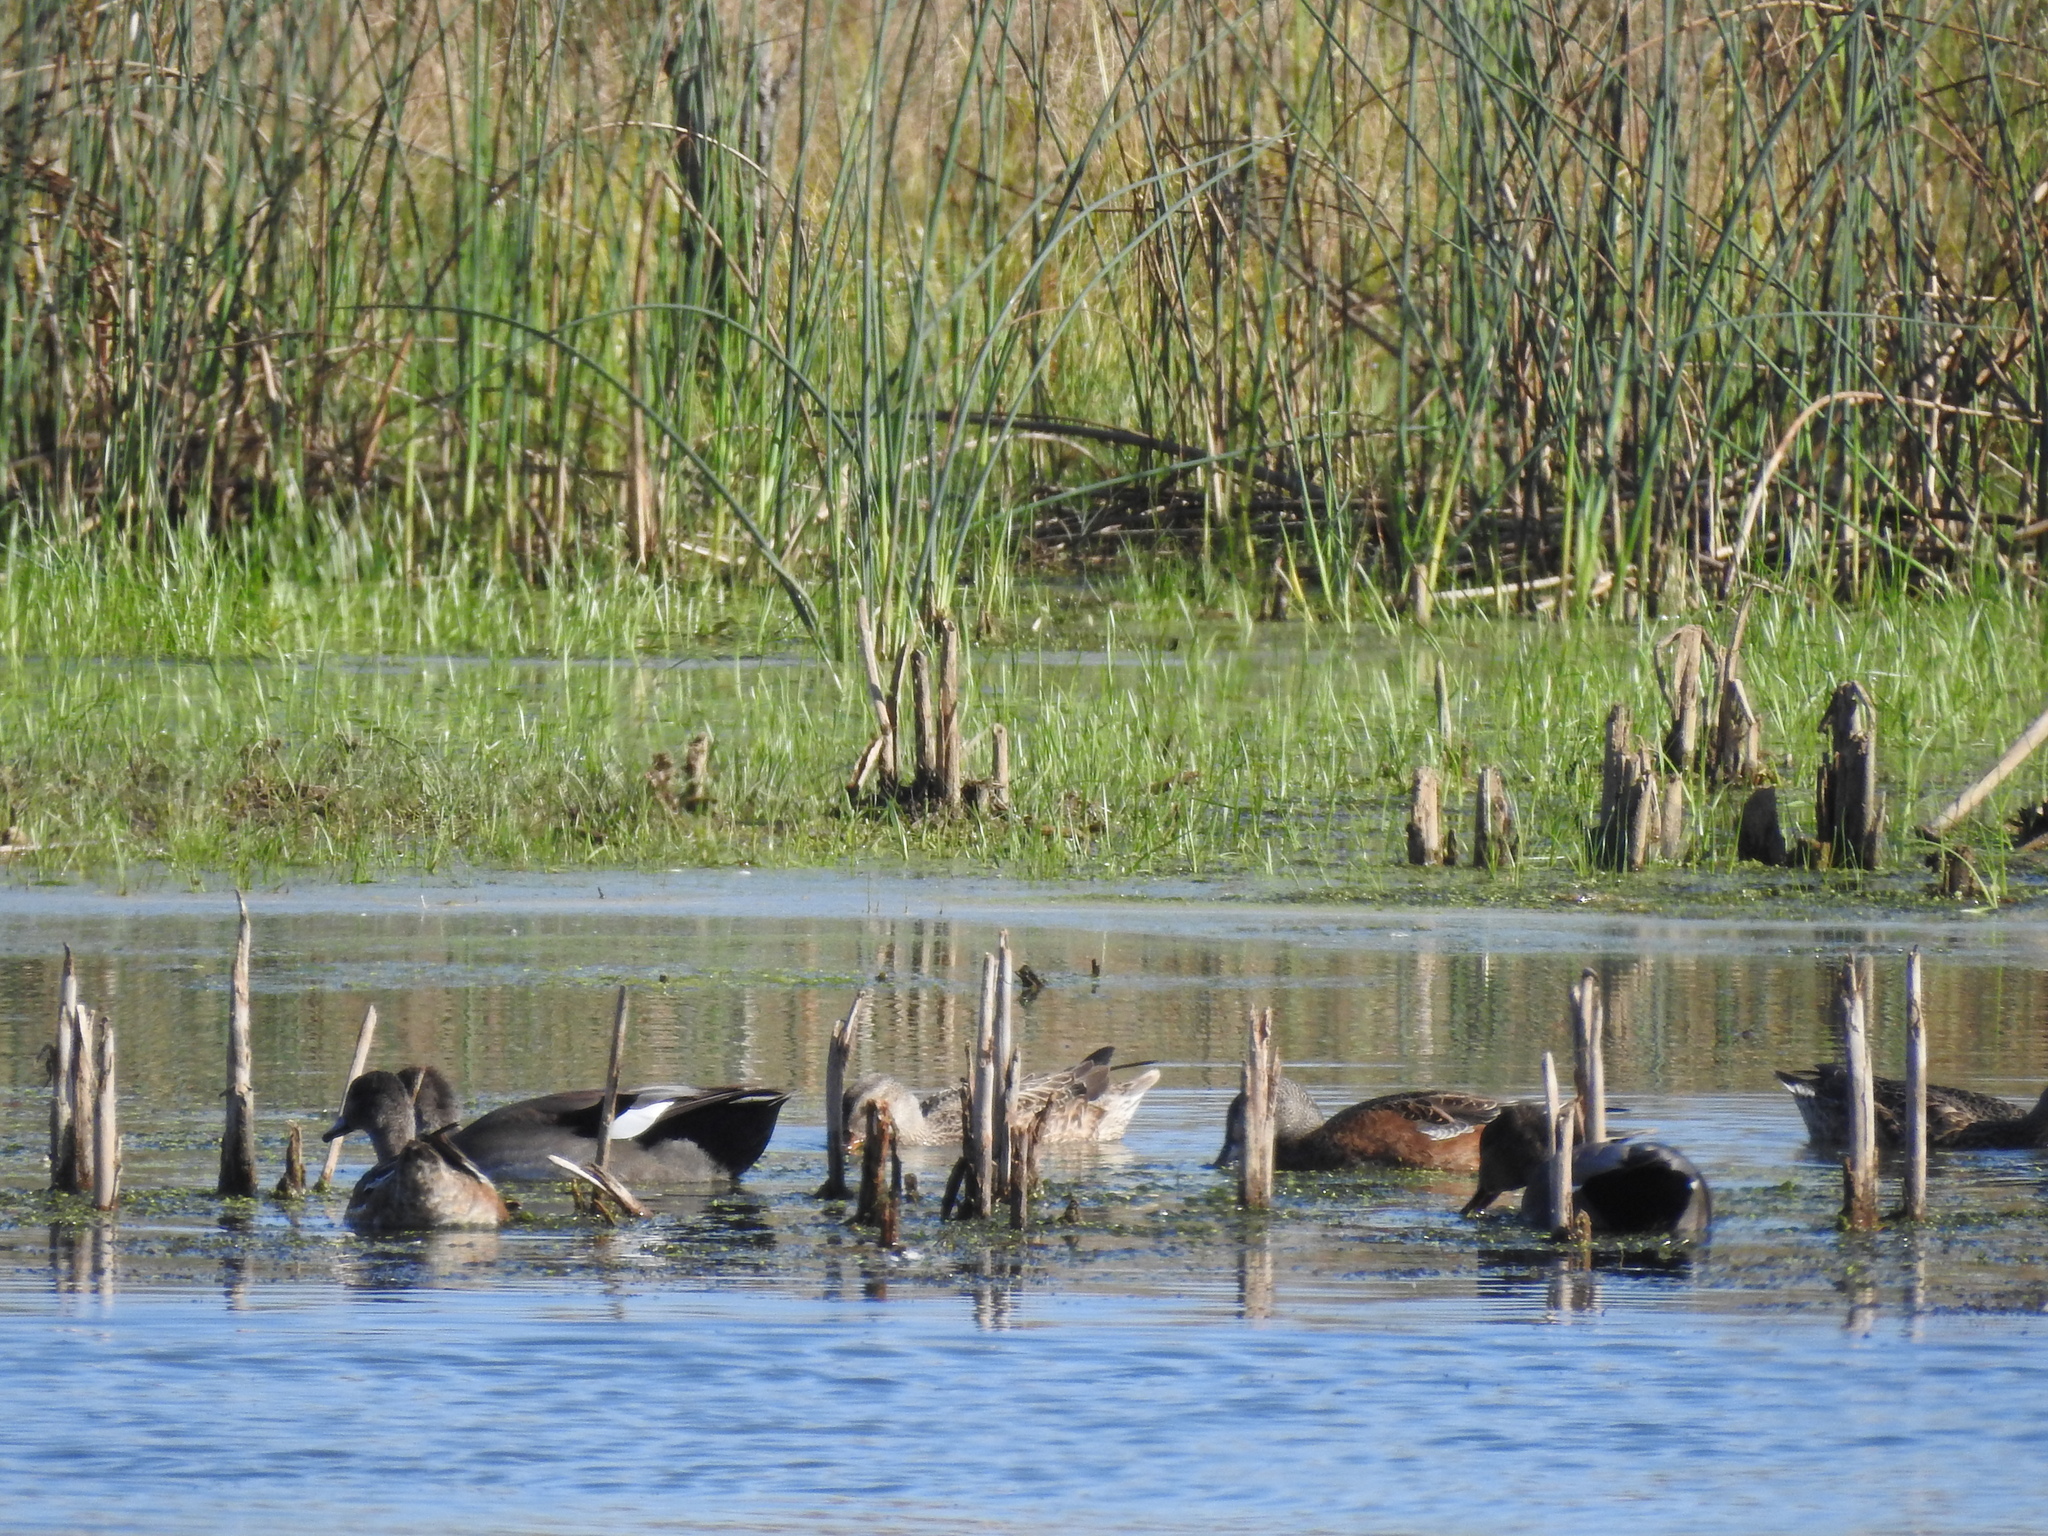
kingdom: Animalia
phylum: Chordata
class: Aves
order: Anseriformes
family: Anatidae
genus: Mareca
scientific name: Mareca strepera
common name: Gadwall
